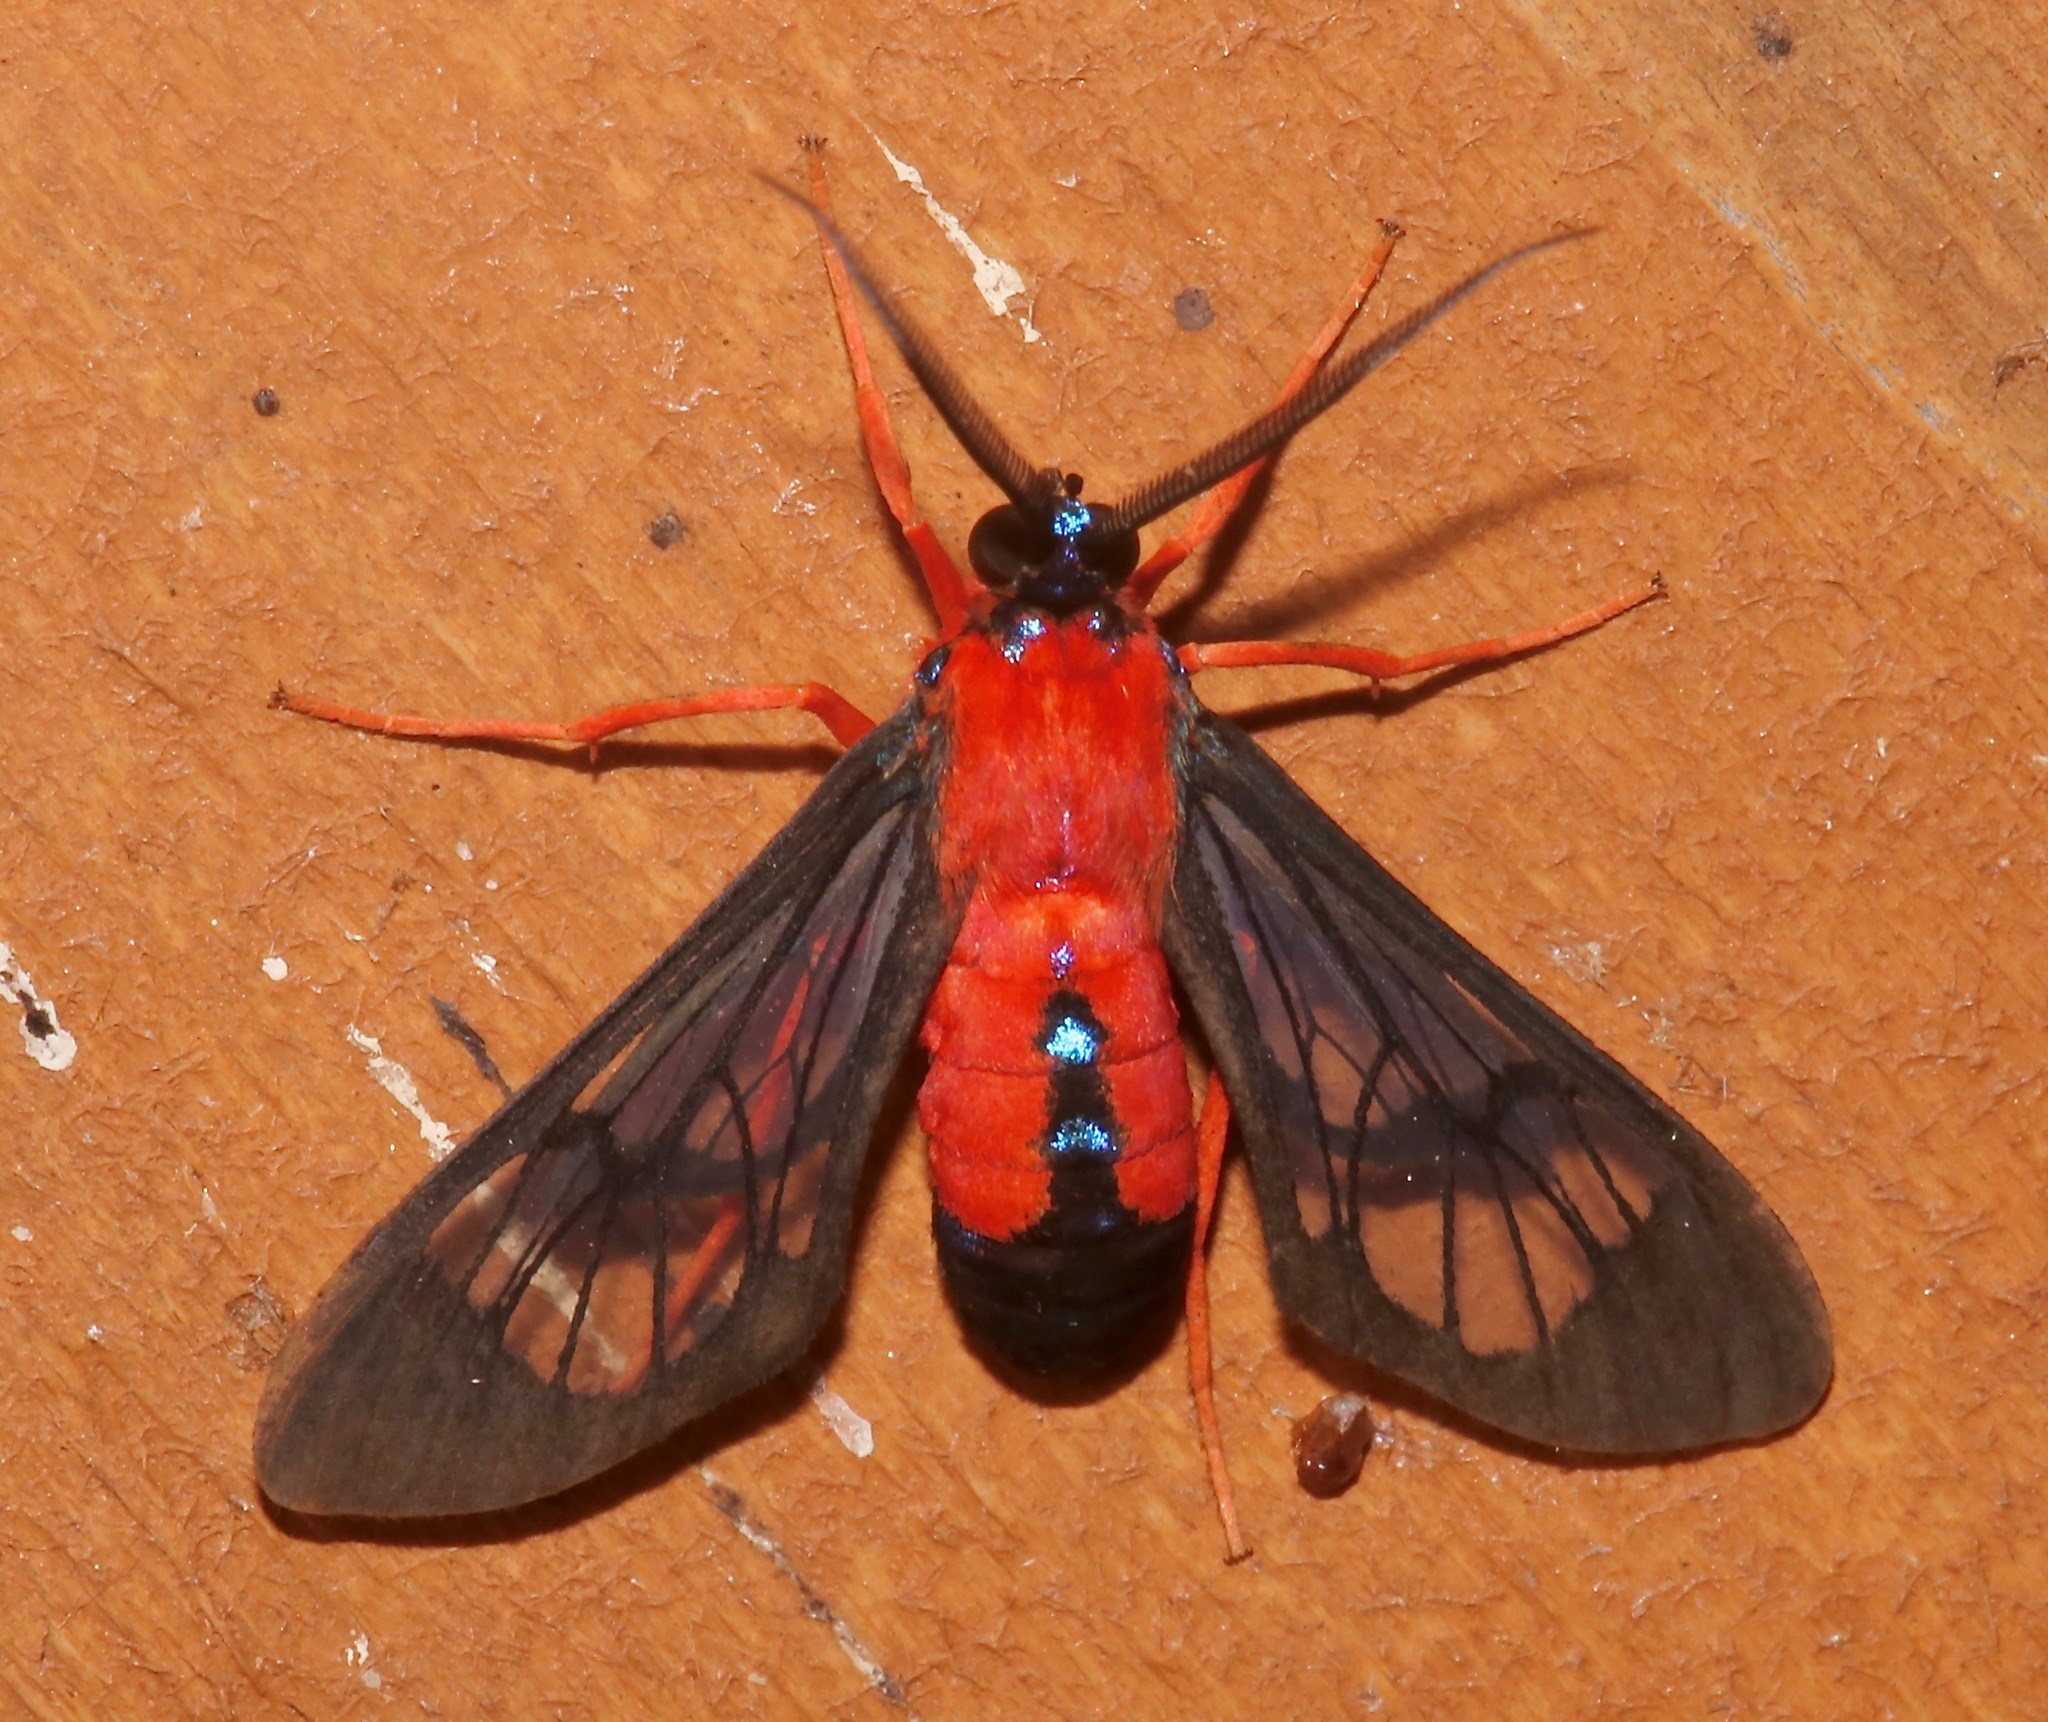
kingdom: Animalia
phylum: Arthropoda
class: Insecta
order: Lepidoptera
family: Erebidae
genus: Cosmosoma
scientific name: Cosmosoma myrodora
